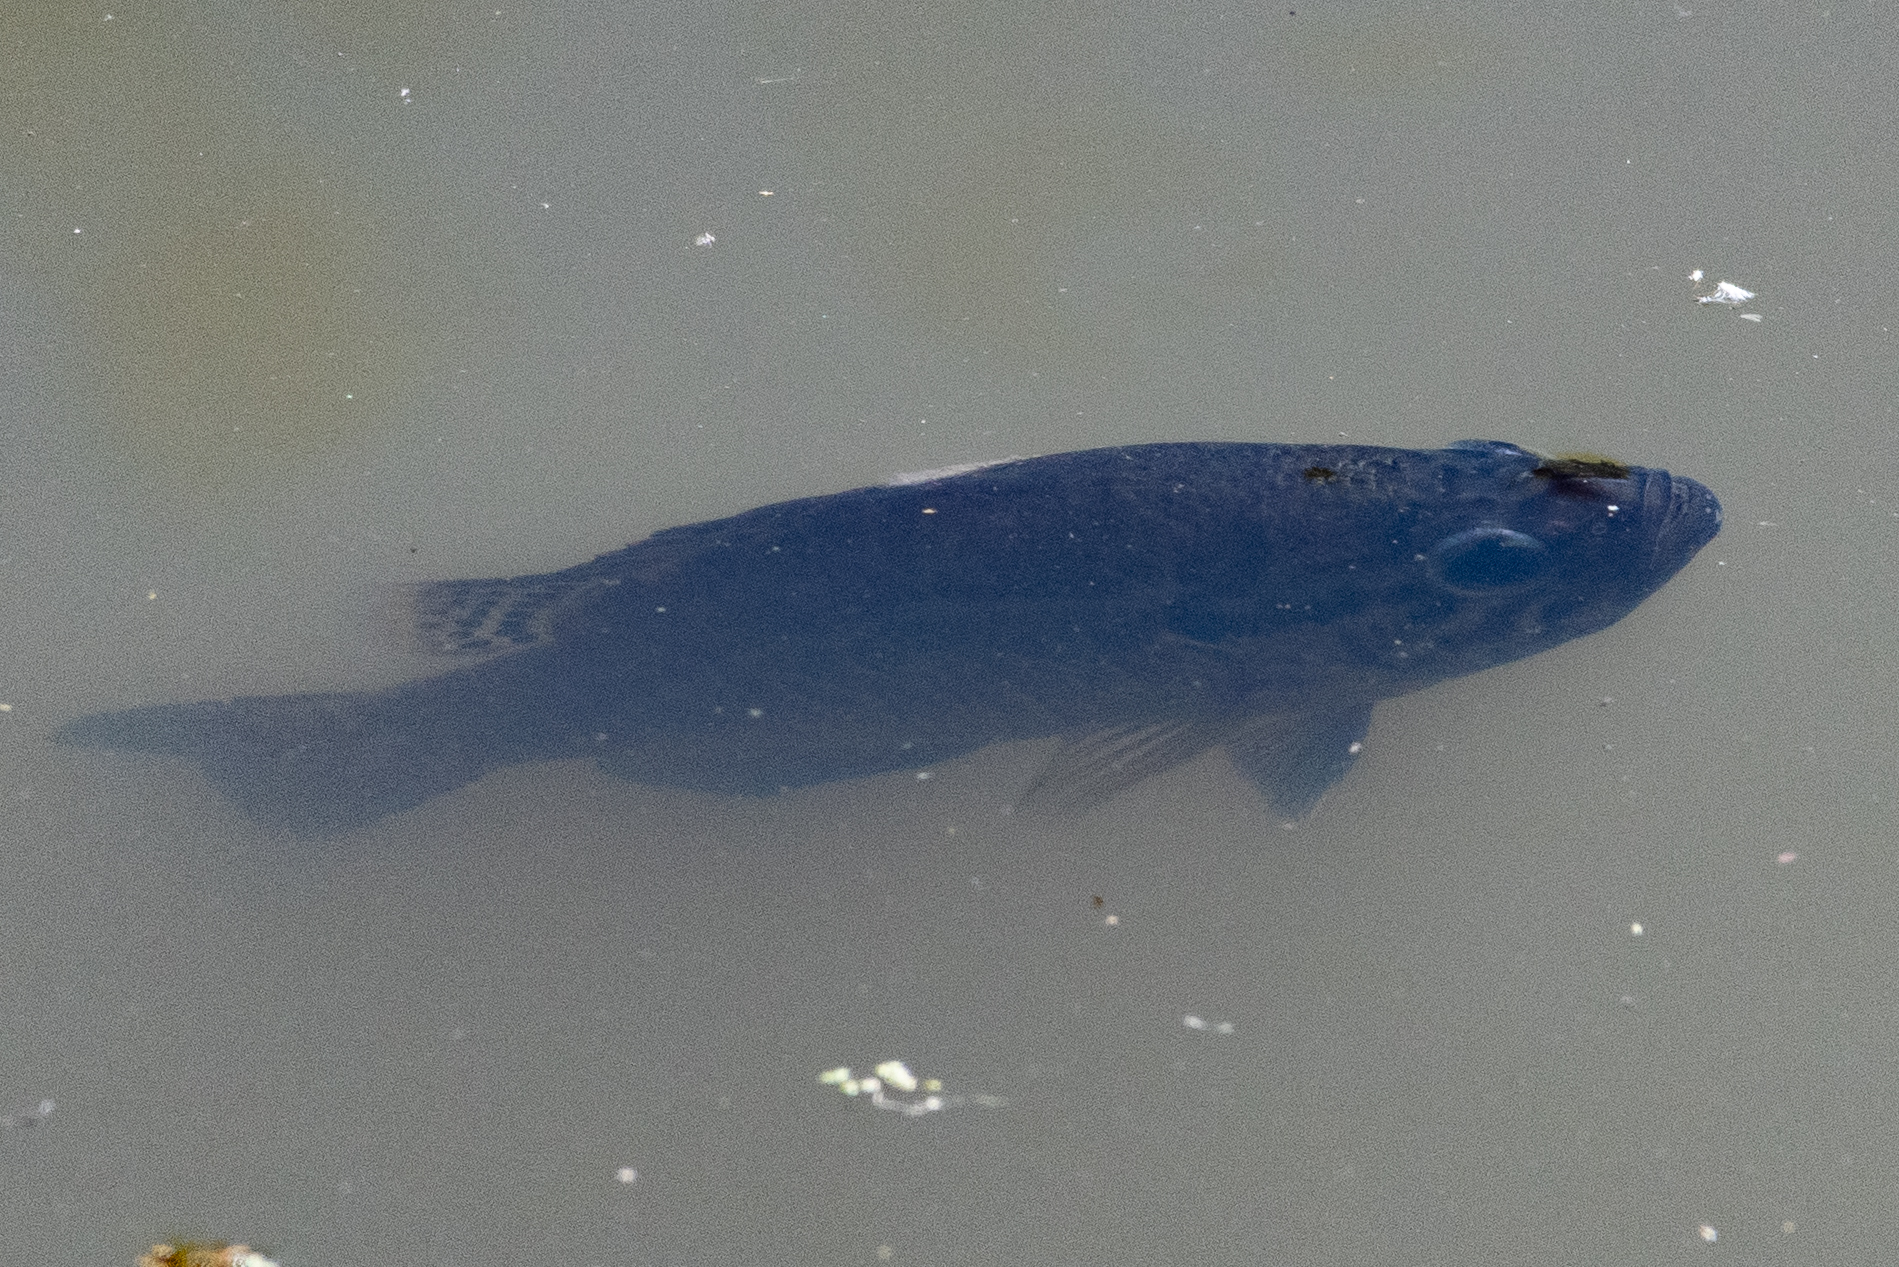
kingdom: Animalia
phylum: Chordata
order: Perciformes
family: Centrarchidae
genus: Lepomis
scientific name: Lepomis gulosus
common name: Warmouth
